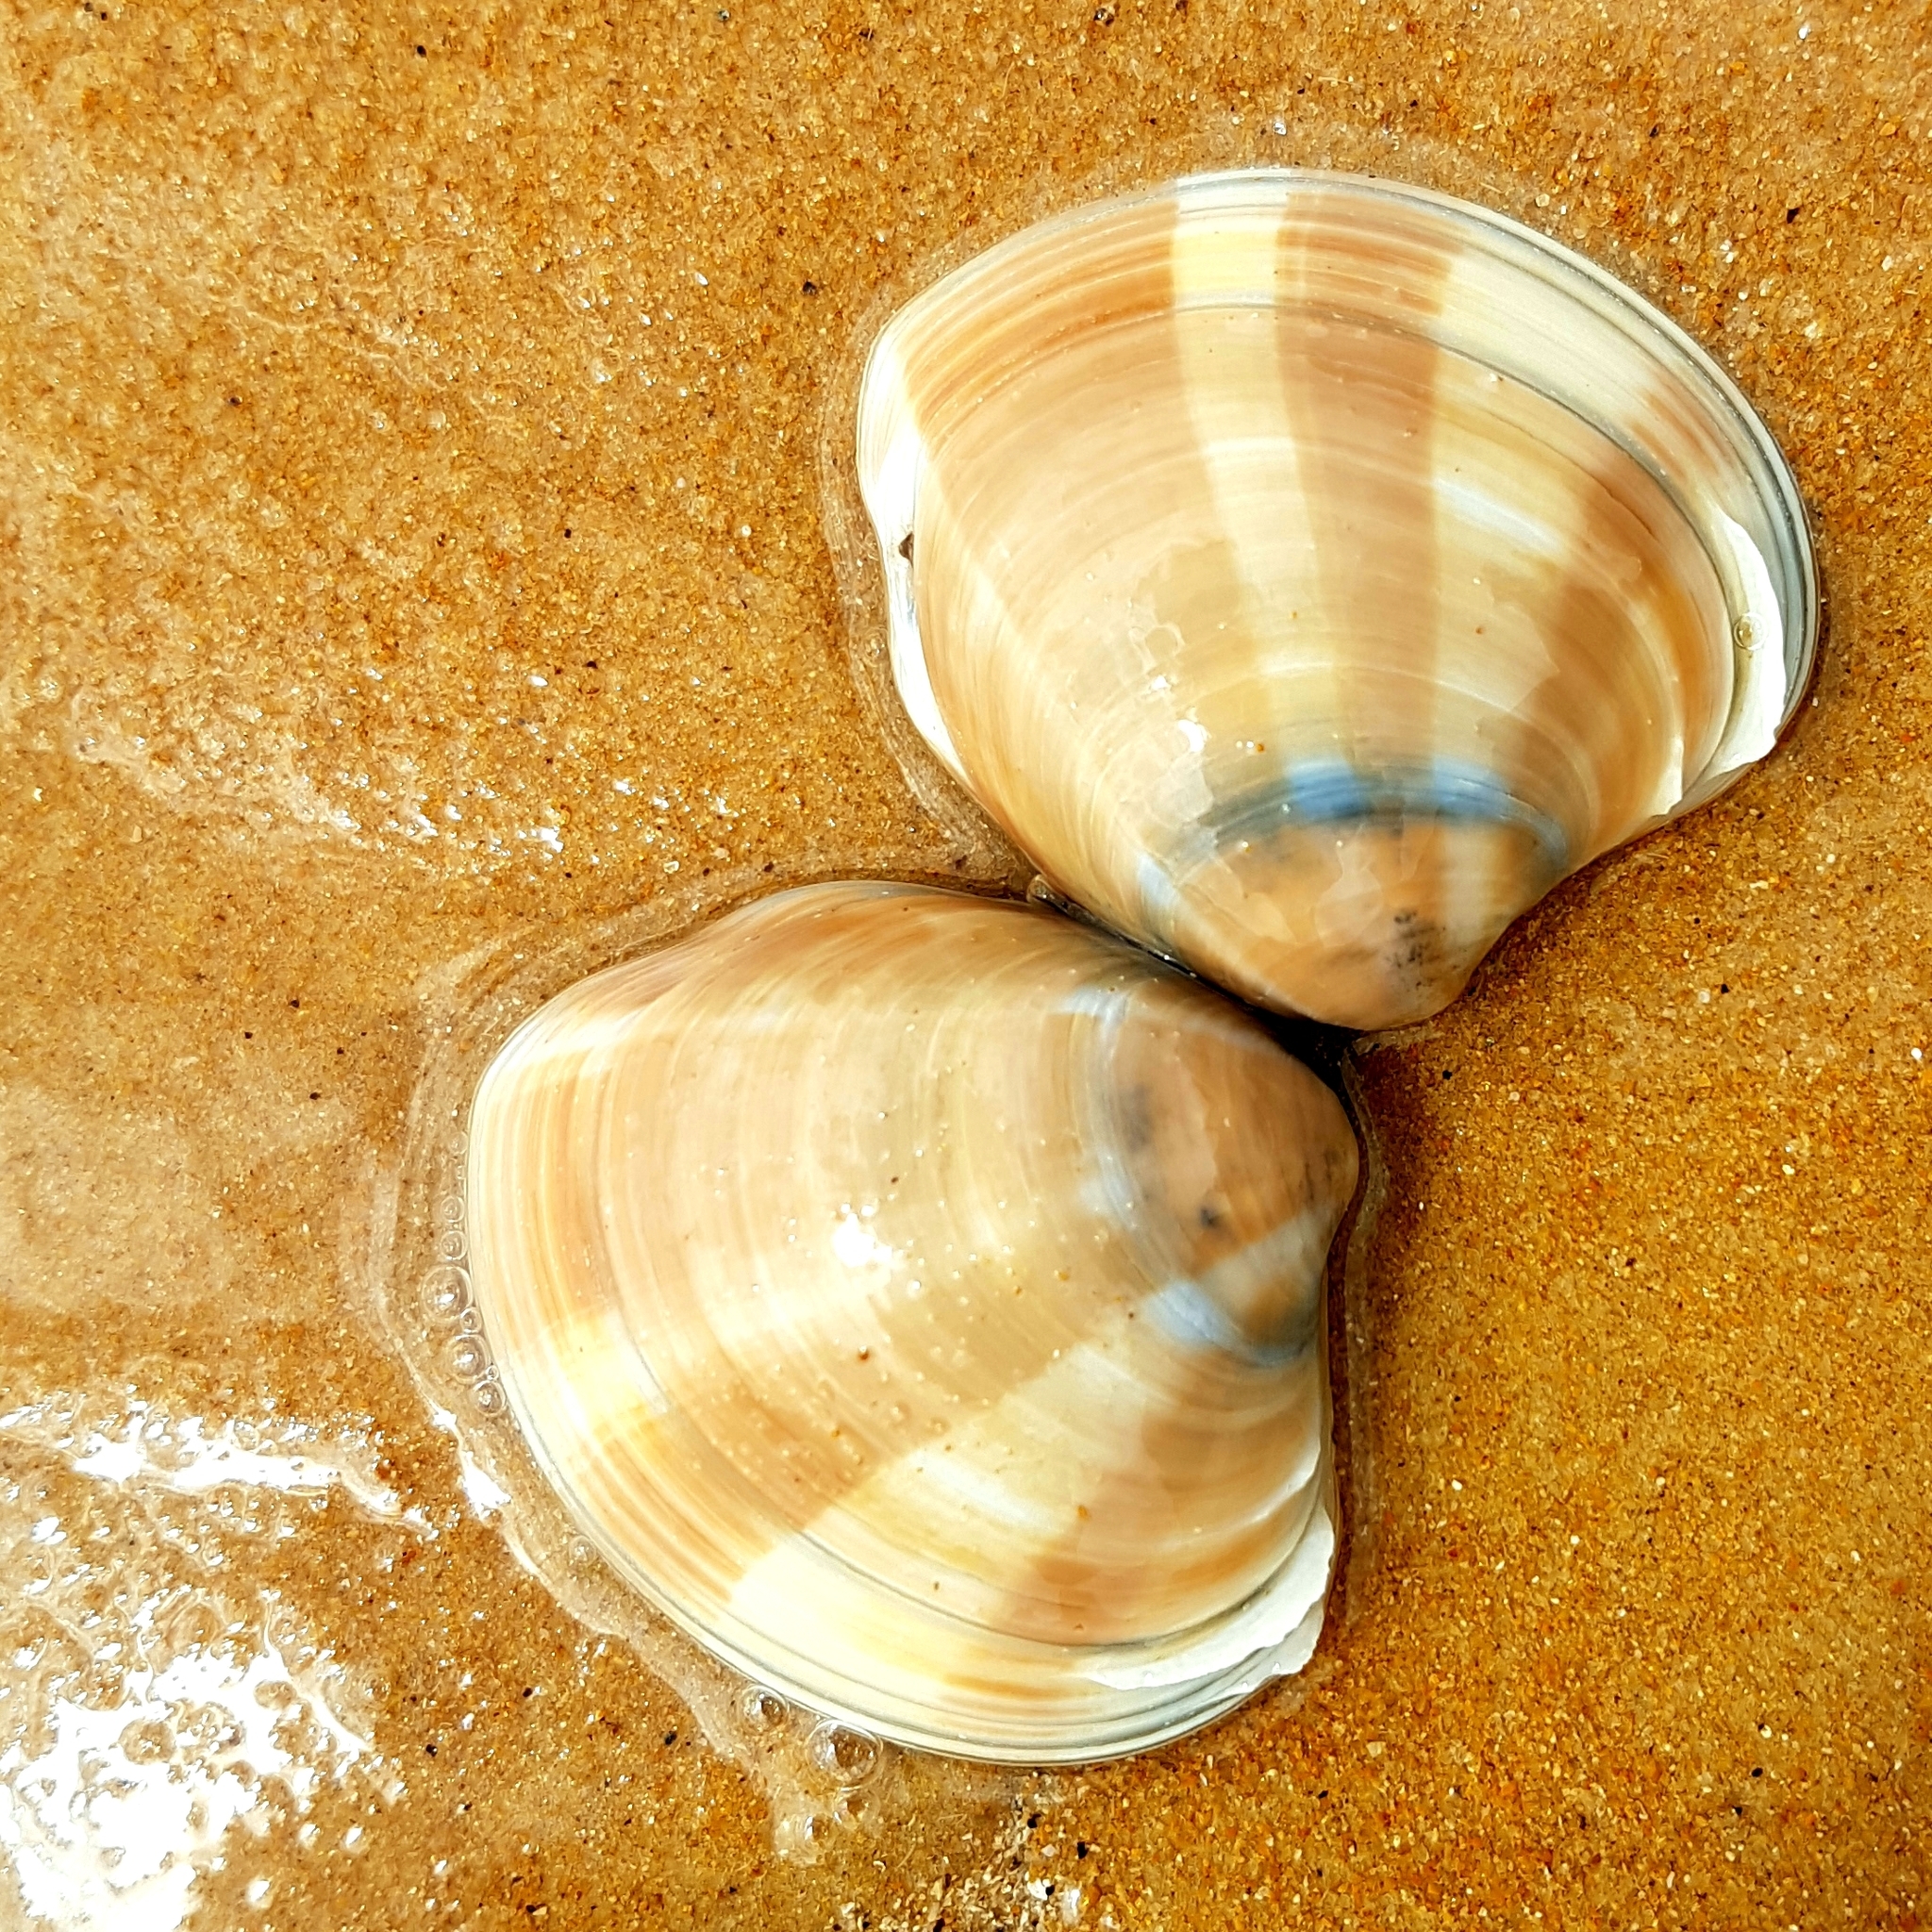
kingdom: Animalia
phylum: Mollusca
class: Bivalvia
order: Venerida
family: Veneridae
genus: Bassina
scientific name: Bassina pachyphylla
